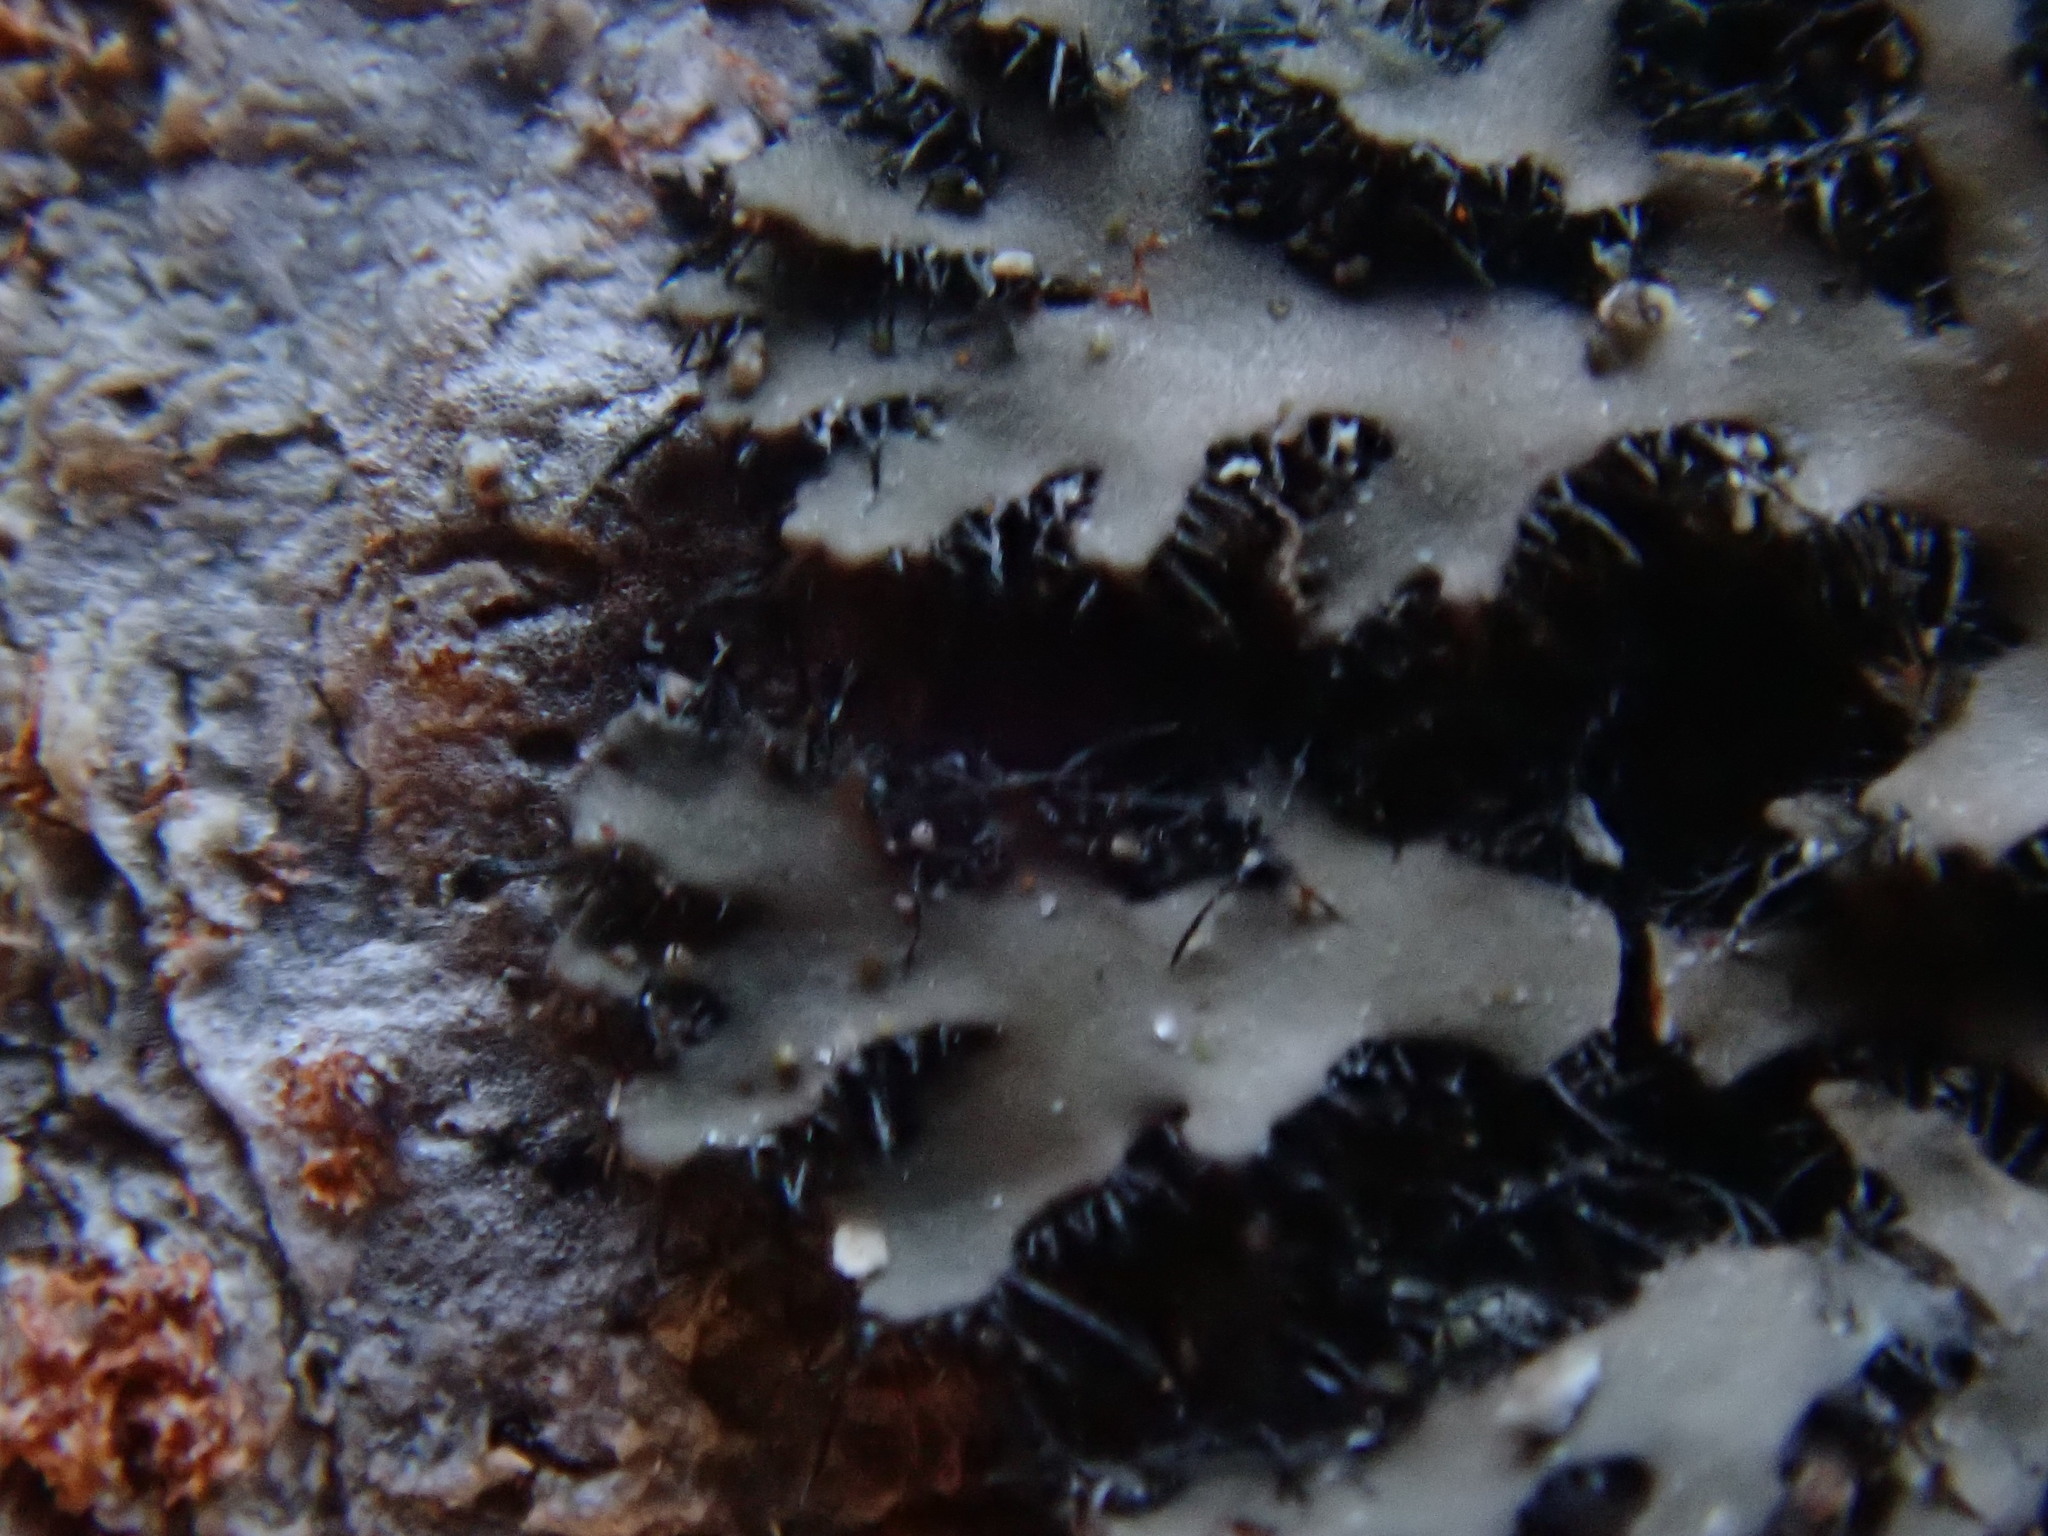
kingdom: Fungi
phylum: Ascomycota
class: Lecanoromycetes
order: Caliciales
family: Physciaceae
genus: Phaeophyscia
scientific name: Phaeophyscia rubropulchra
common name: Orange-cored shadow lichen
